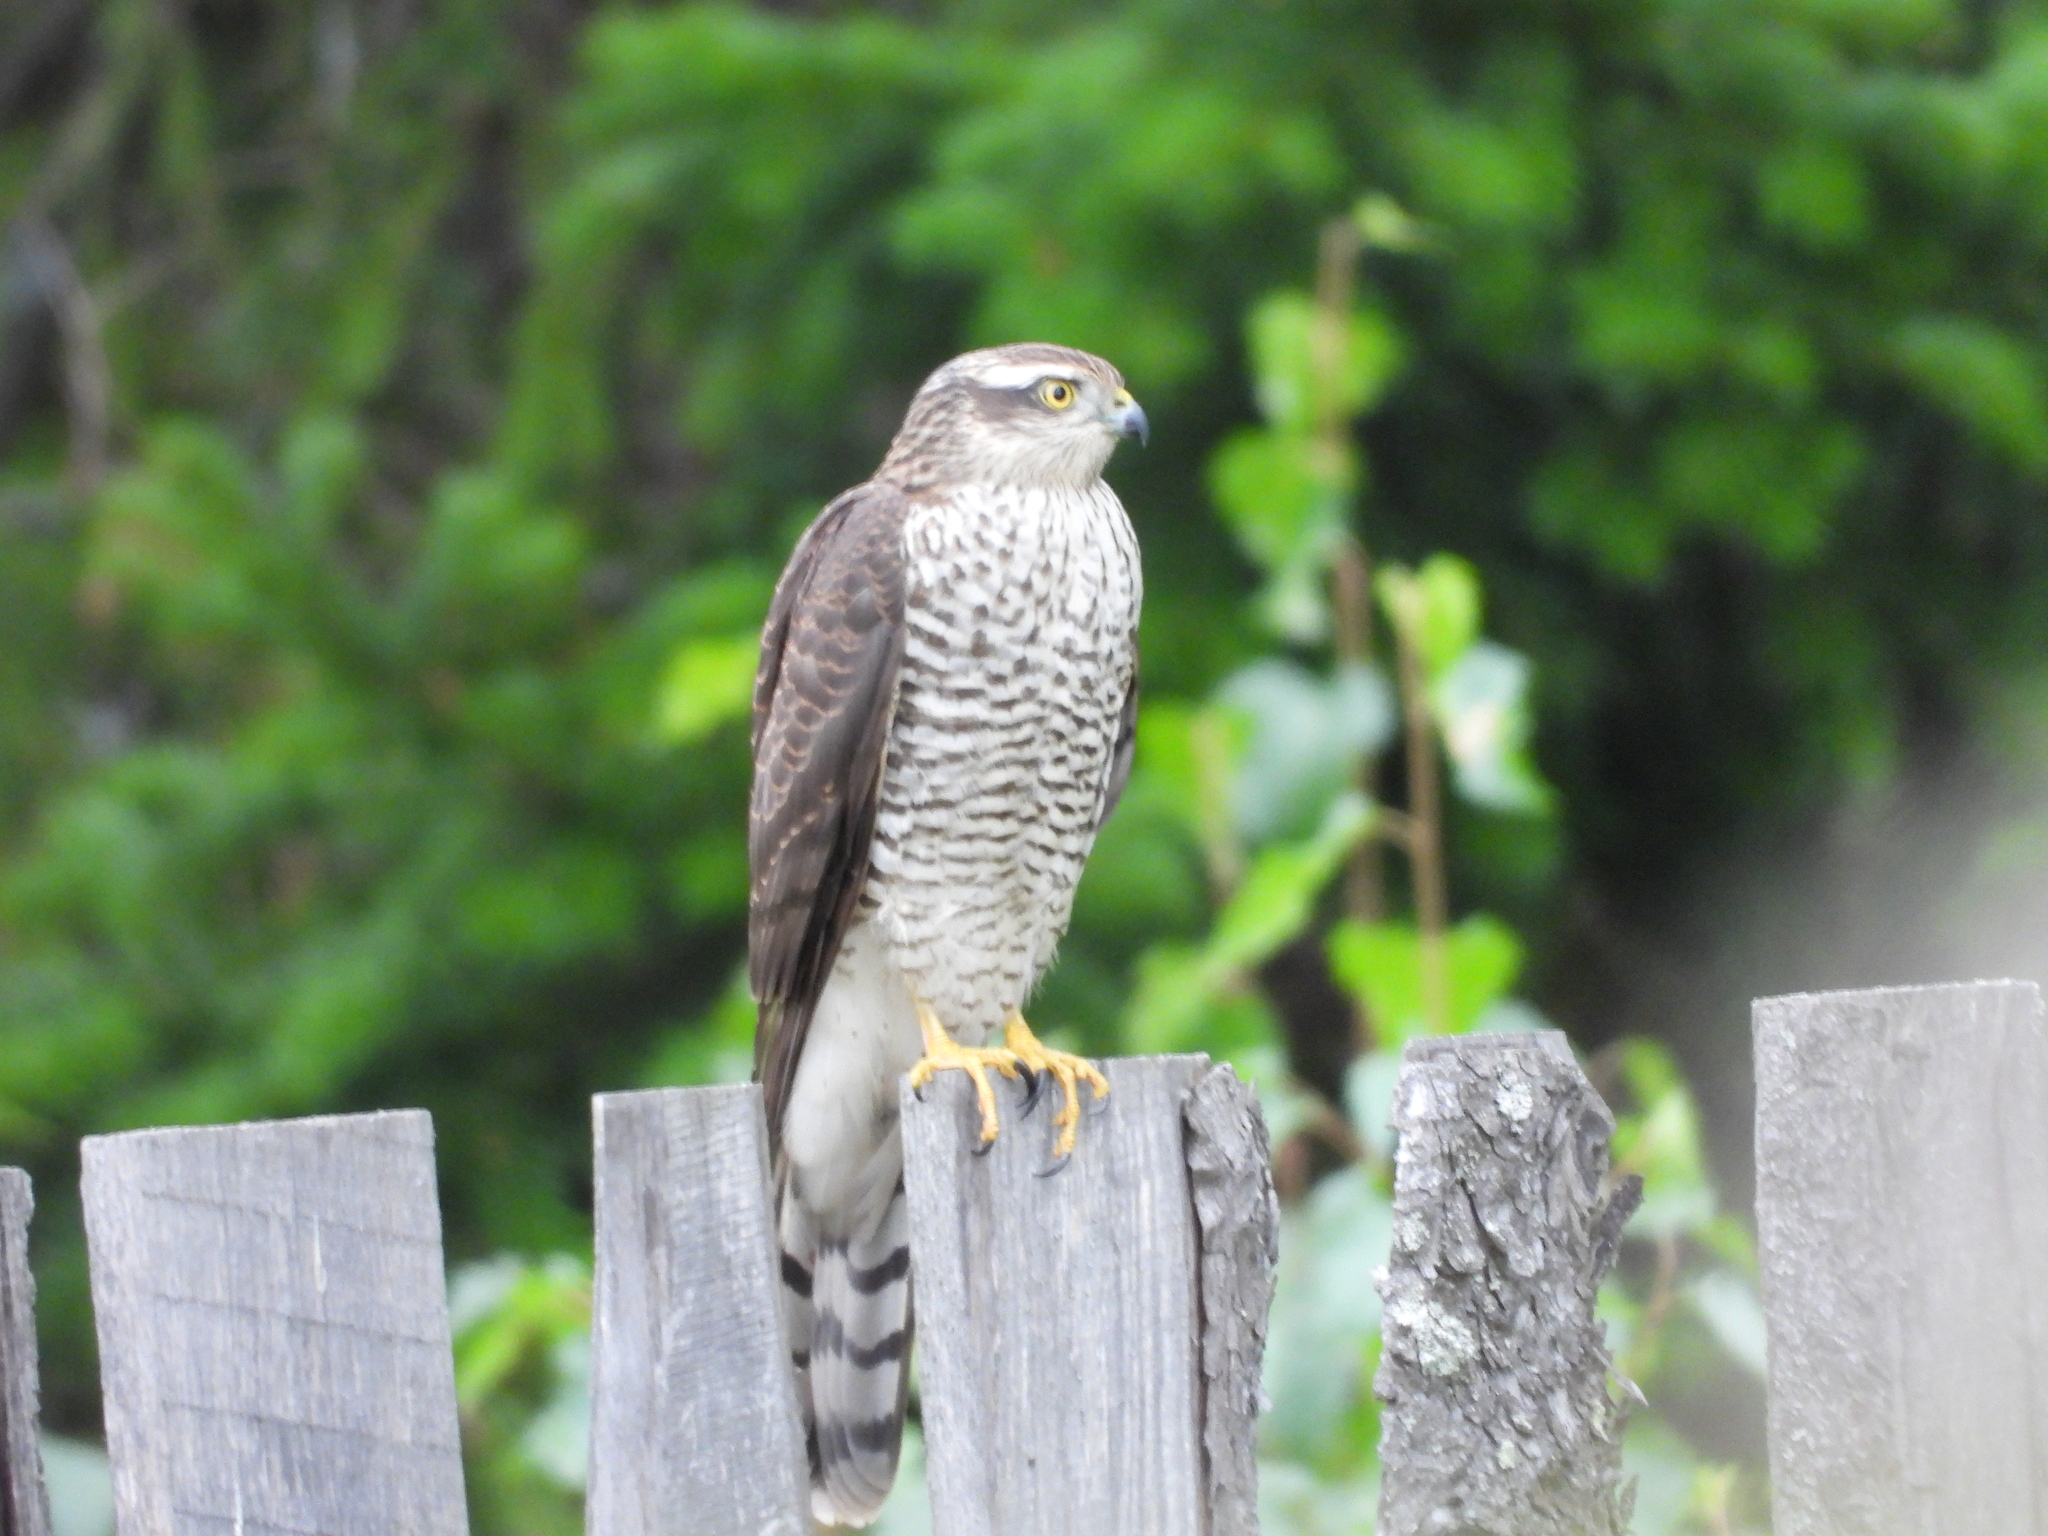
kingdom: Animalia
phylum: Chordata
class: Aves
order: Accipitriformes
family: Accipitridae
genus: Accipiter
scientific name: Accipiter nisus
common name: Eurasian sparrowhawk
